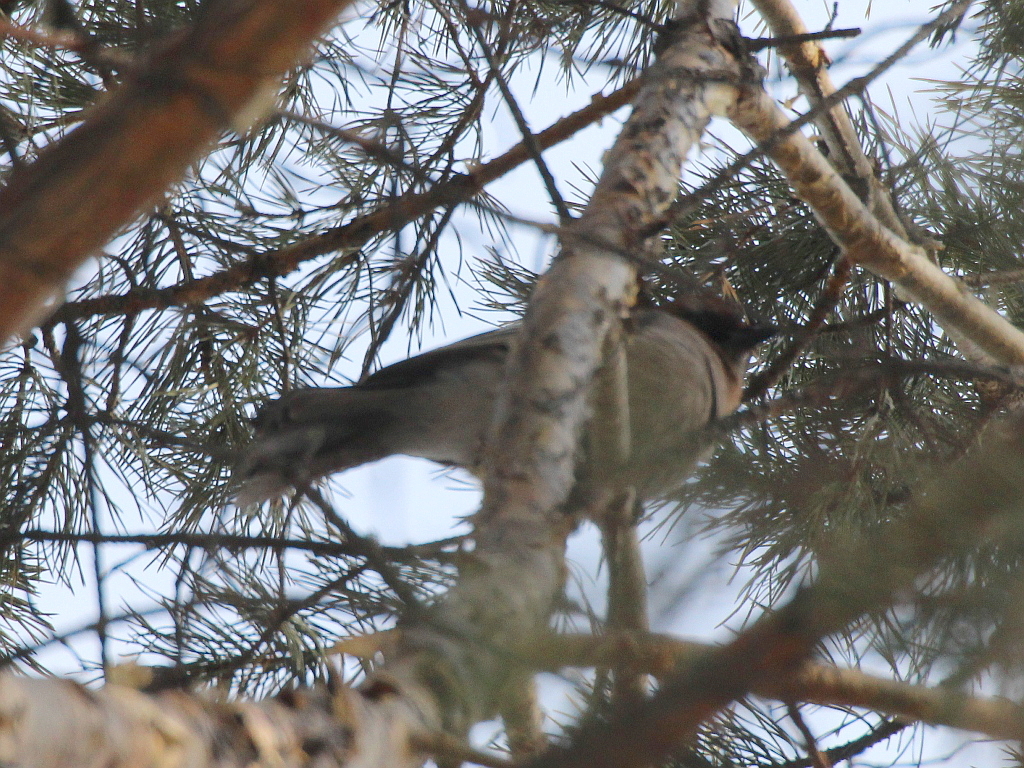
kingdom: Animalia
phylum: Chordata
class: Aves
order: Passeriformes
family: Corvidae
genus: Garrulus
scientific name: Garrulus glandarius
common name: Eurasian jay
